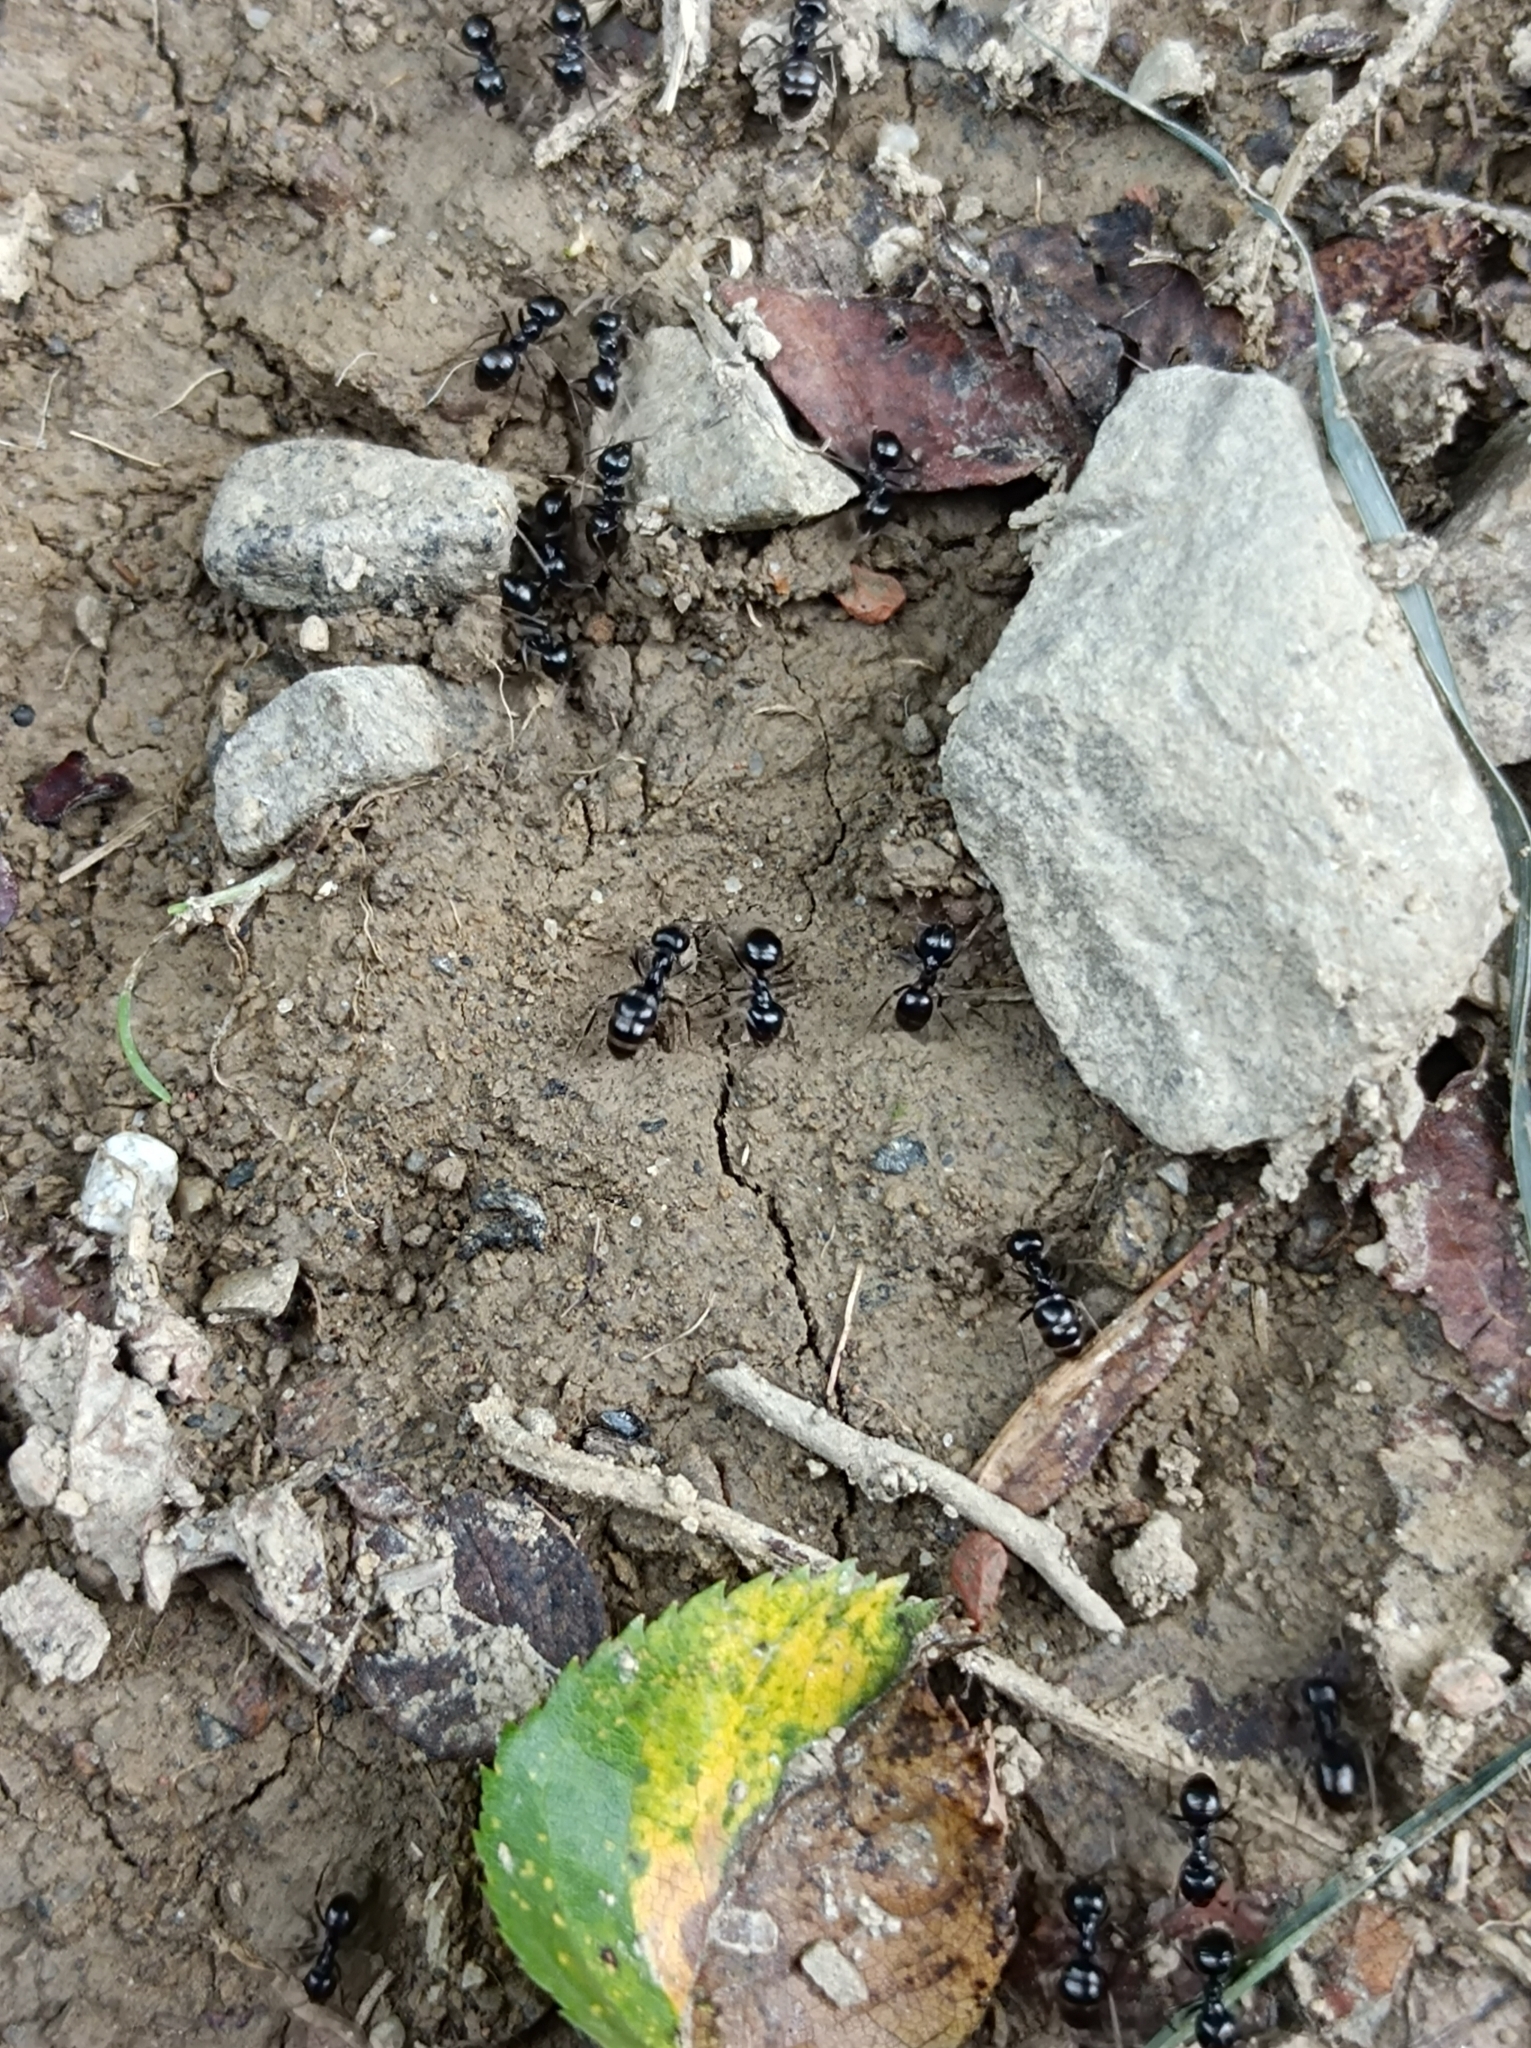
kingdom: Animalia
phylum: Arthropoda
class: Insecta
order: Hymenoptera
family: Formicidae
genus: Lasius
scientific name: Lasius fuliginosus
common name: Jet ant
